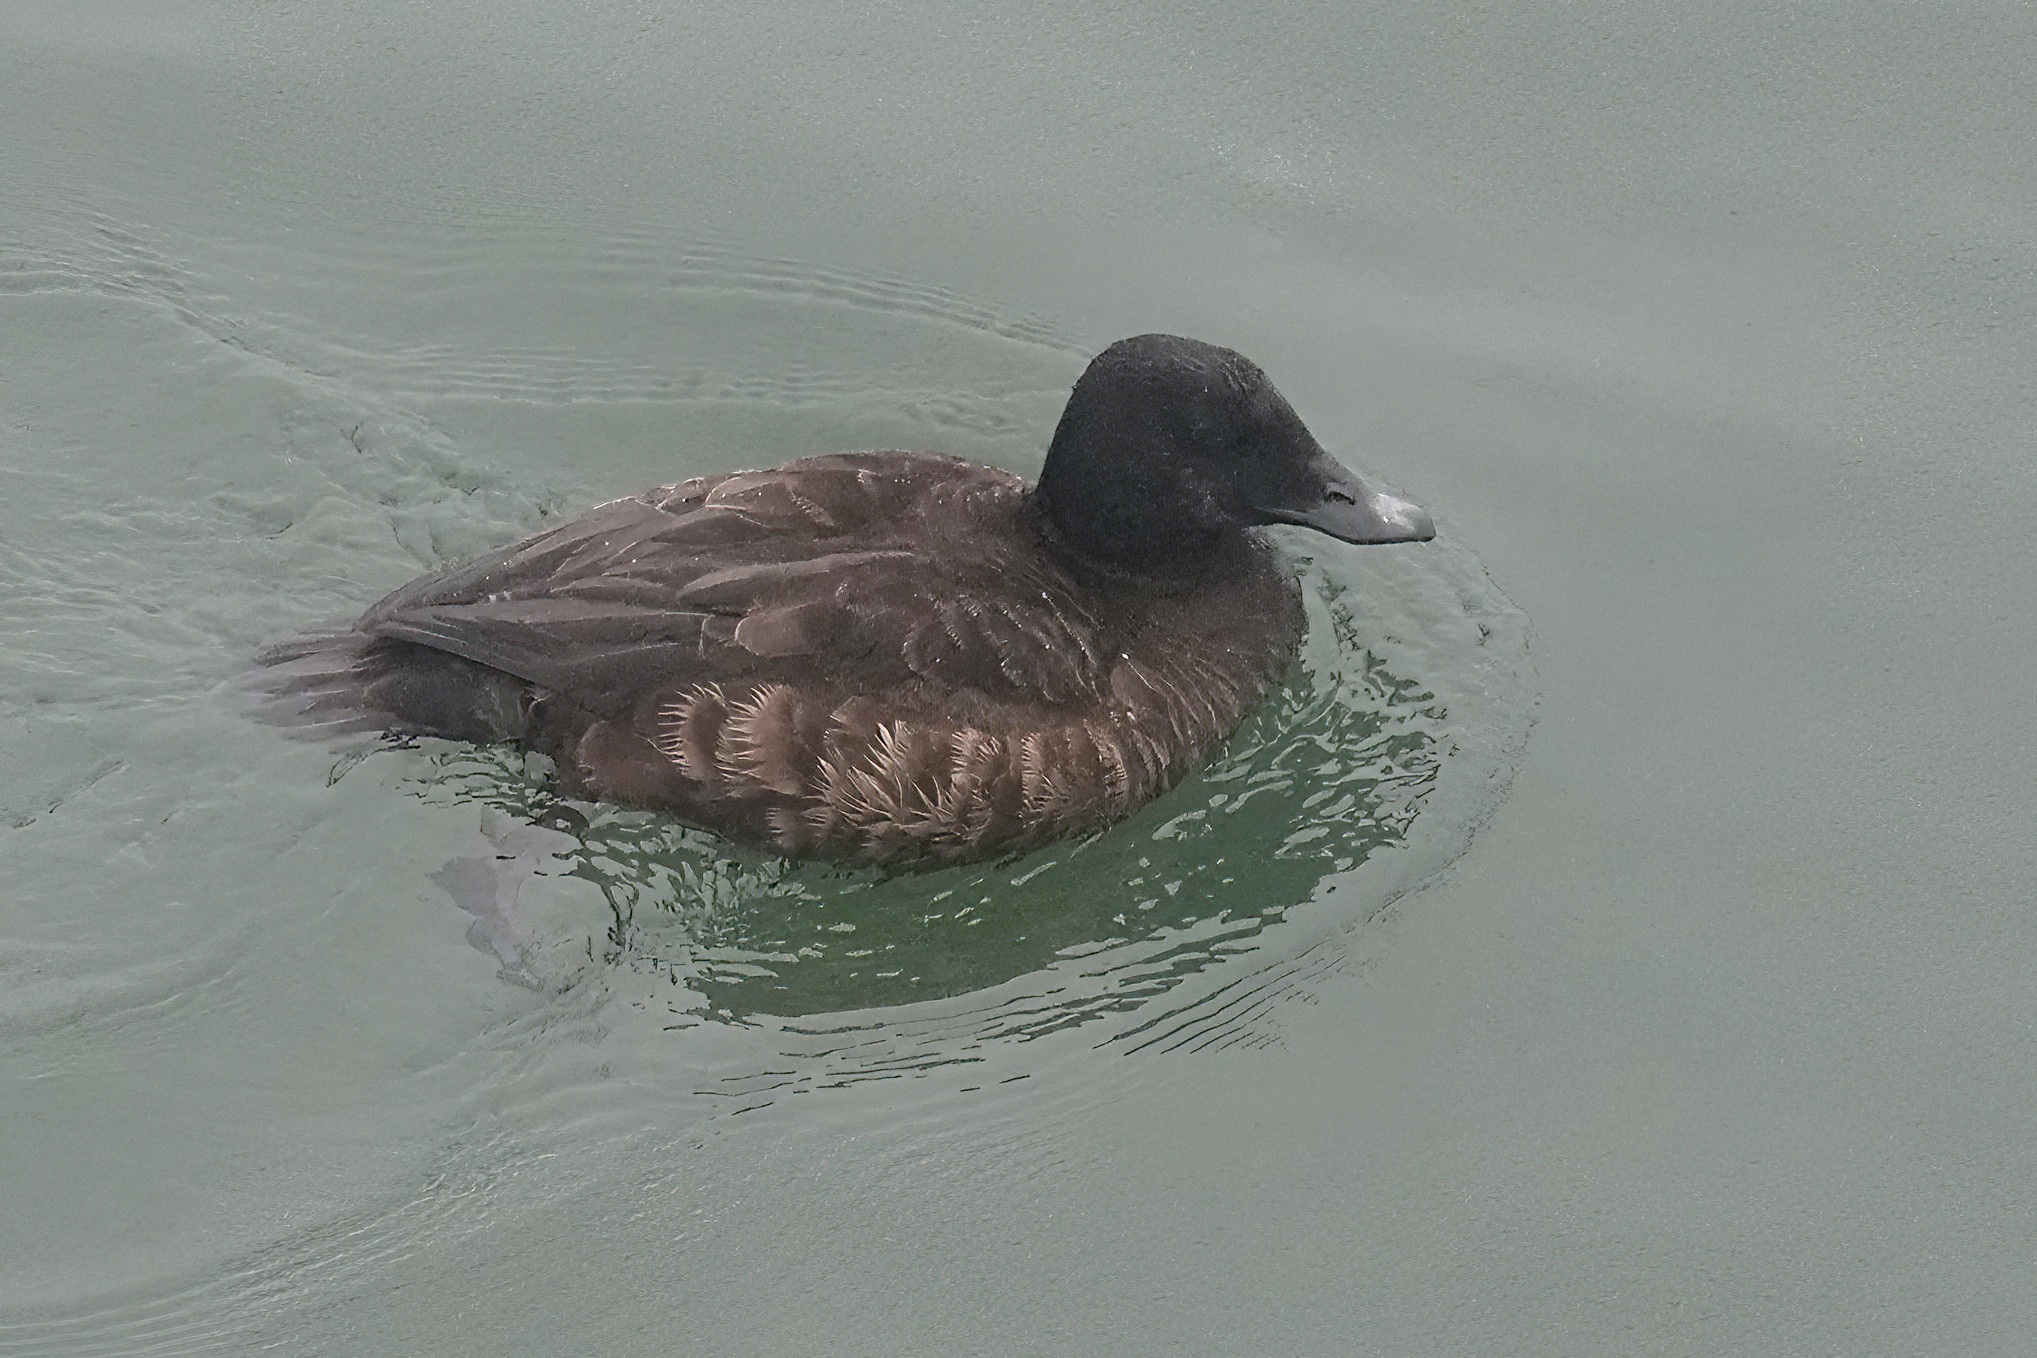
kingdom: Animalia
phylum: Chordata
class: Aves
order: Anseriformes
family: Anatidae
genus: Melanitta
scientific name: Melanitta deglandi
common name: White-winged scoter
